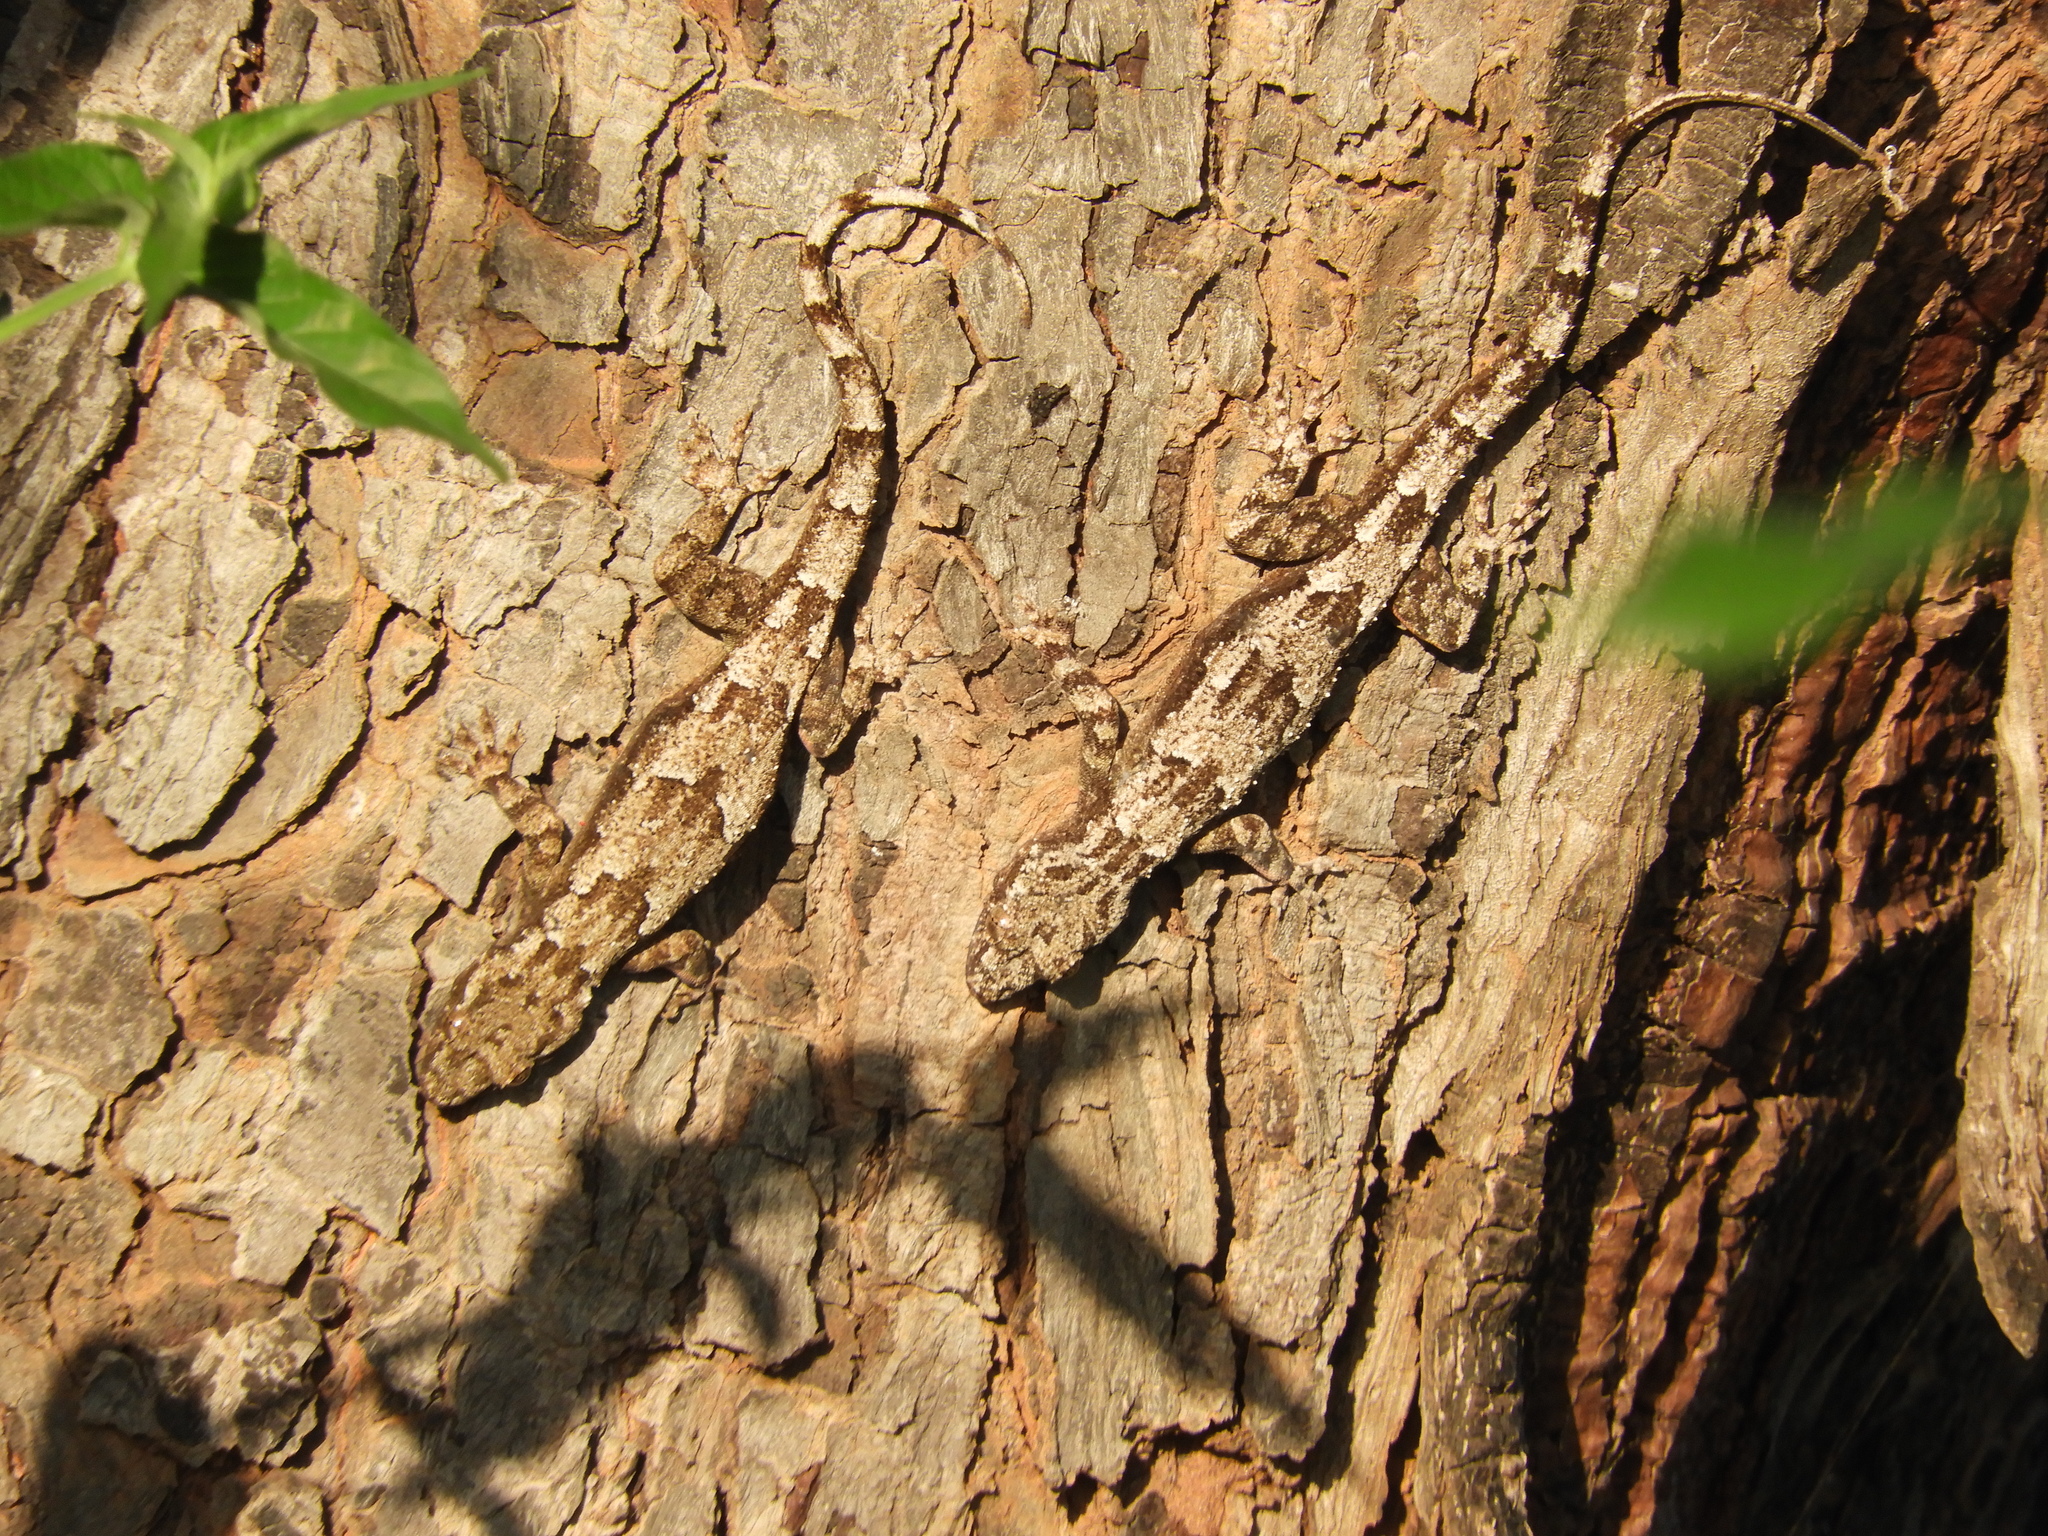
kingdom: Animalia
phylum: Chordata
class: Squamata
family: Gekkonidae
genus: Hemidactylus
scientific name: Hemidactylus platycephalus
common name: Baobab gecko
